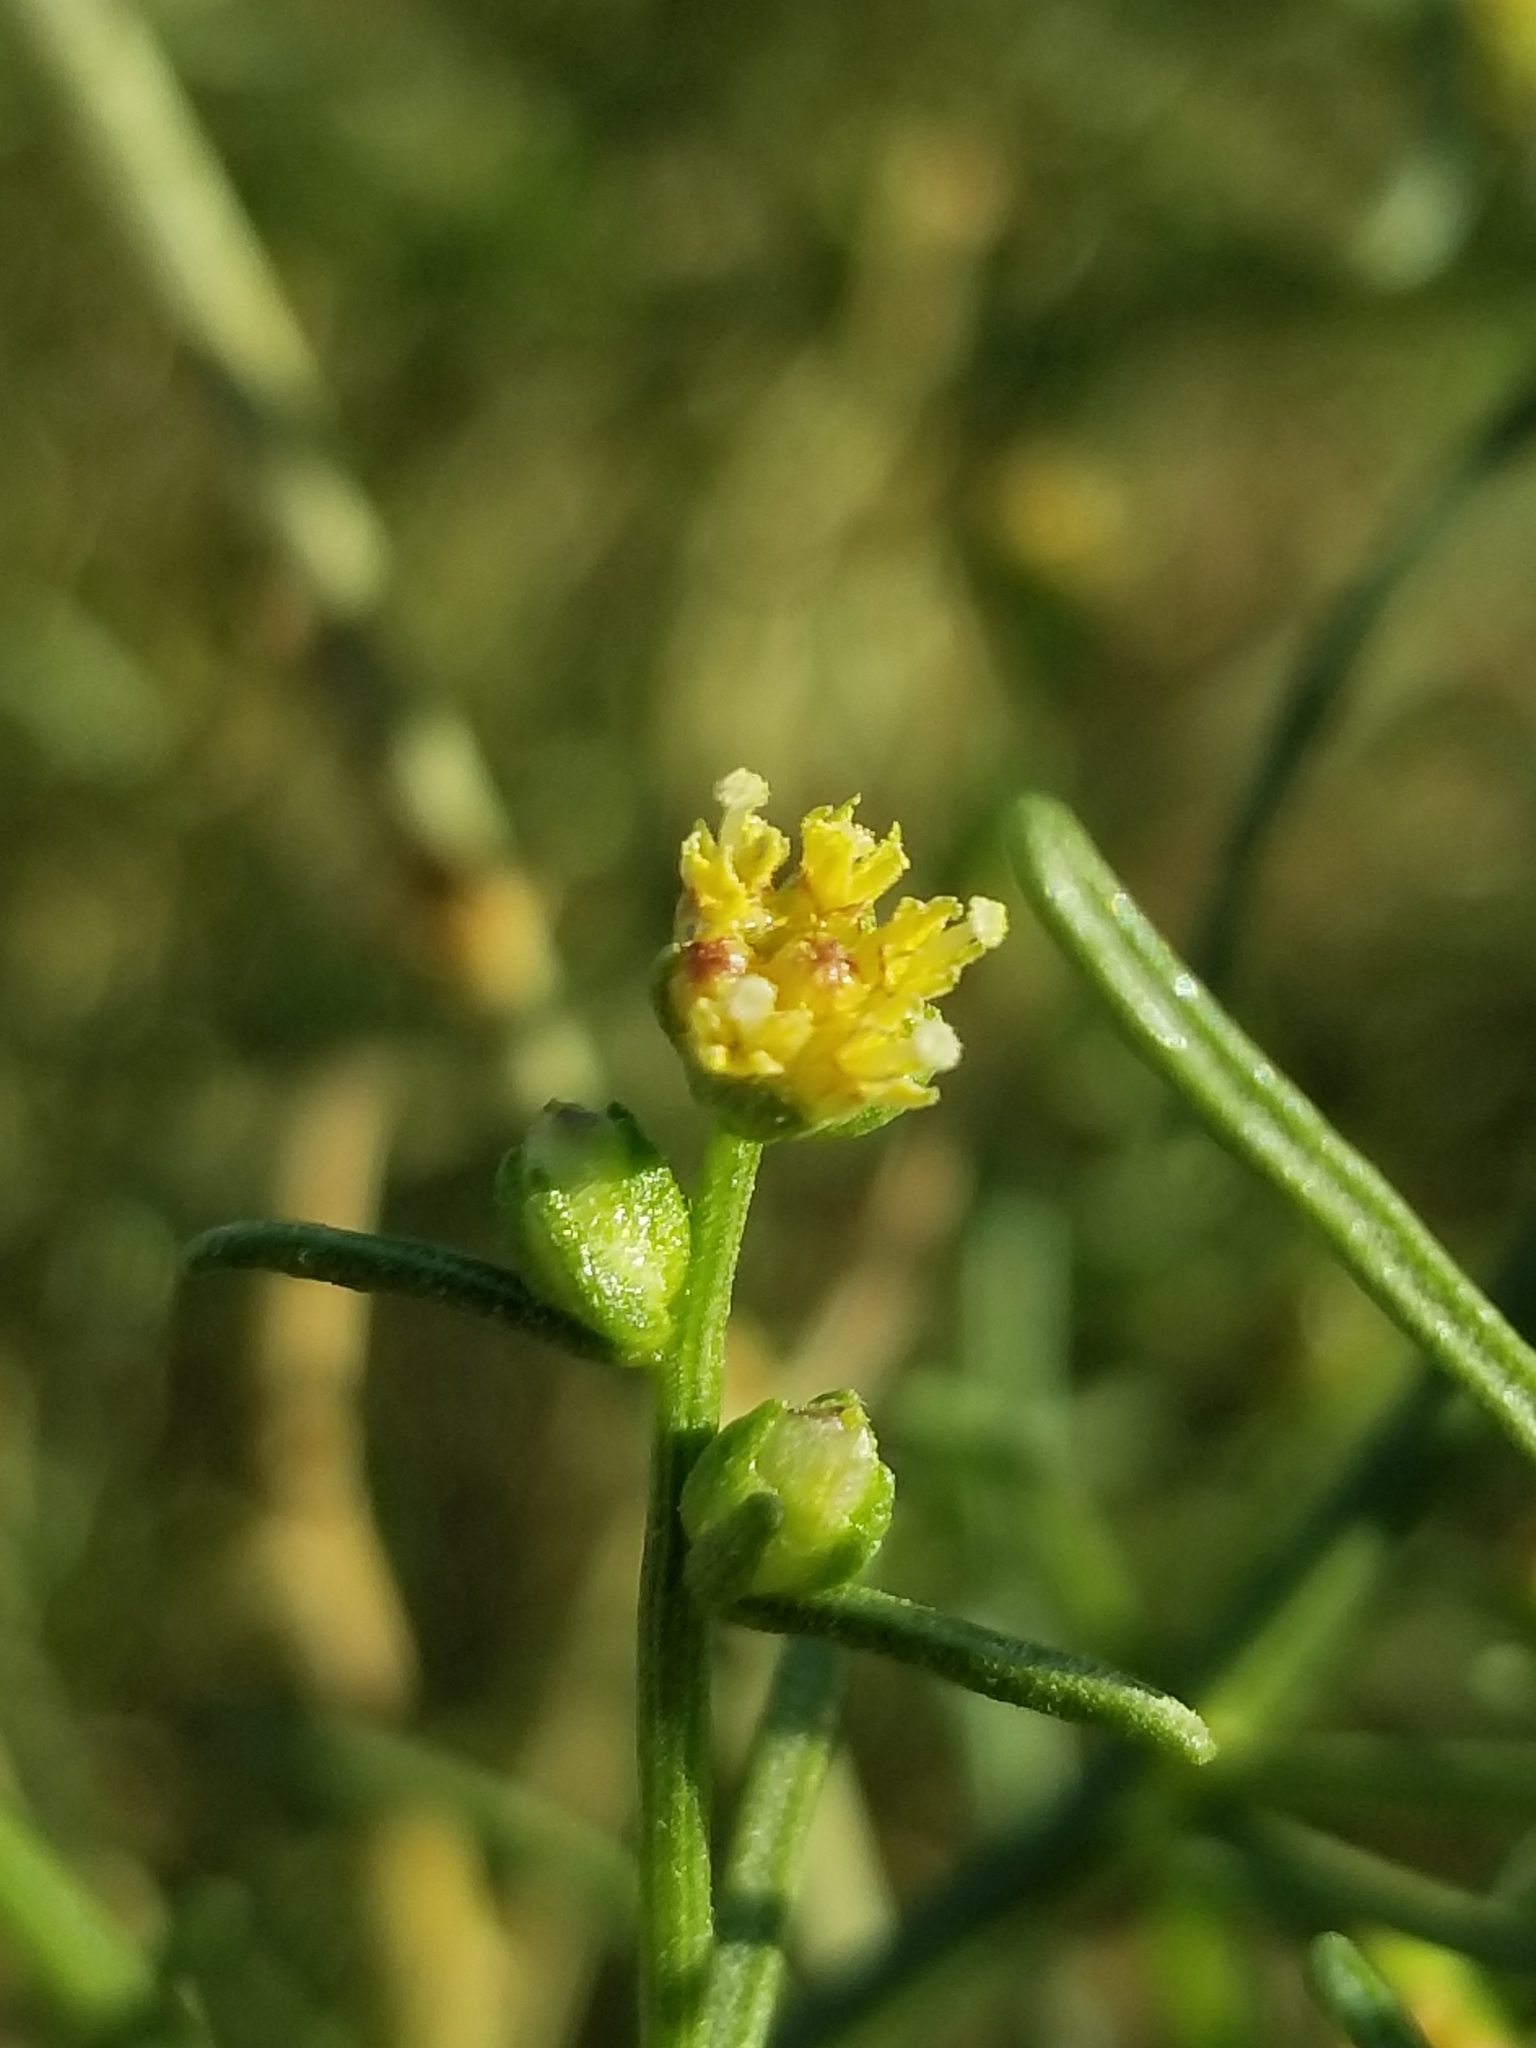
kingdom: Plantae
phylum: Tracheophyta
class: Magnoliopsida
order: Asterales
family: Asteraceae
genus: Ambrosia
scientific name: Ambrosia salsola
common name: Burrobrush
